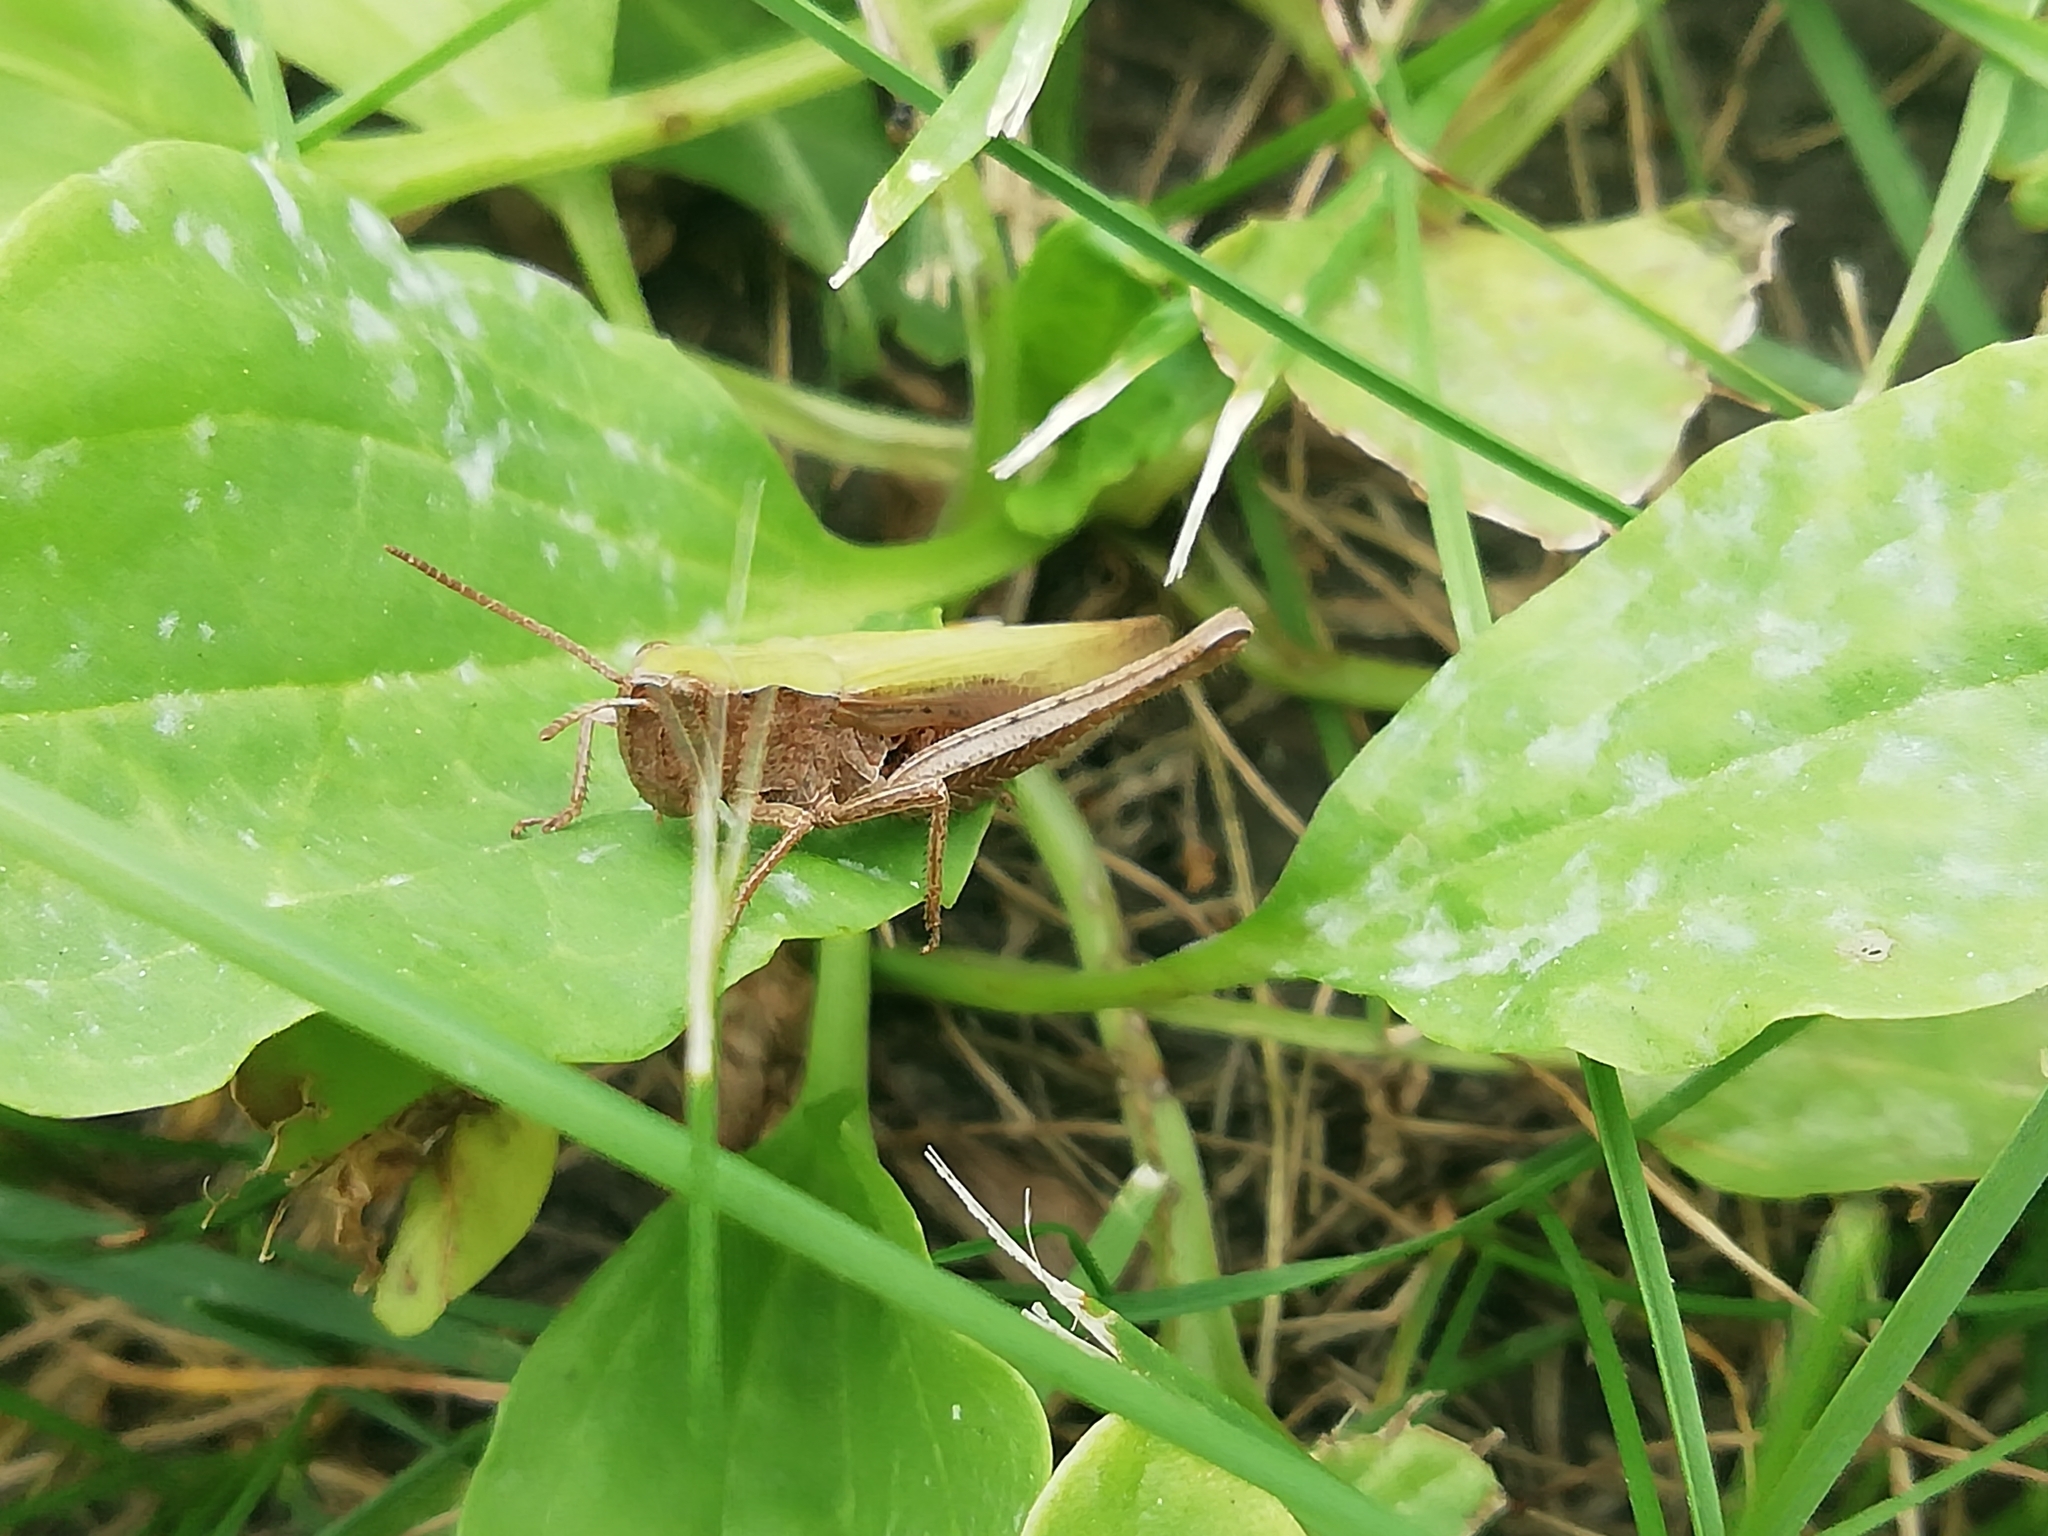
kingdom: Animalia
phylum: Arthropoda
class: Insecta
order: Orthoptera
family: Acrididae
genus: Chorthippus
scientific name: Chorthippus dorsatus
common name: Steppe grasshopper
